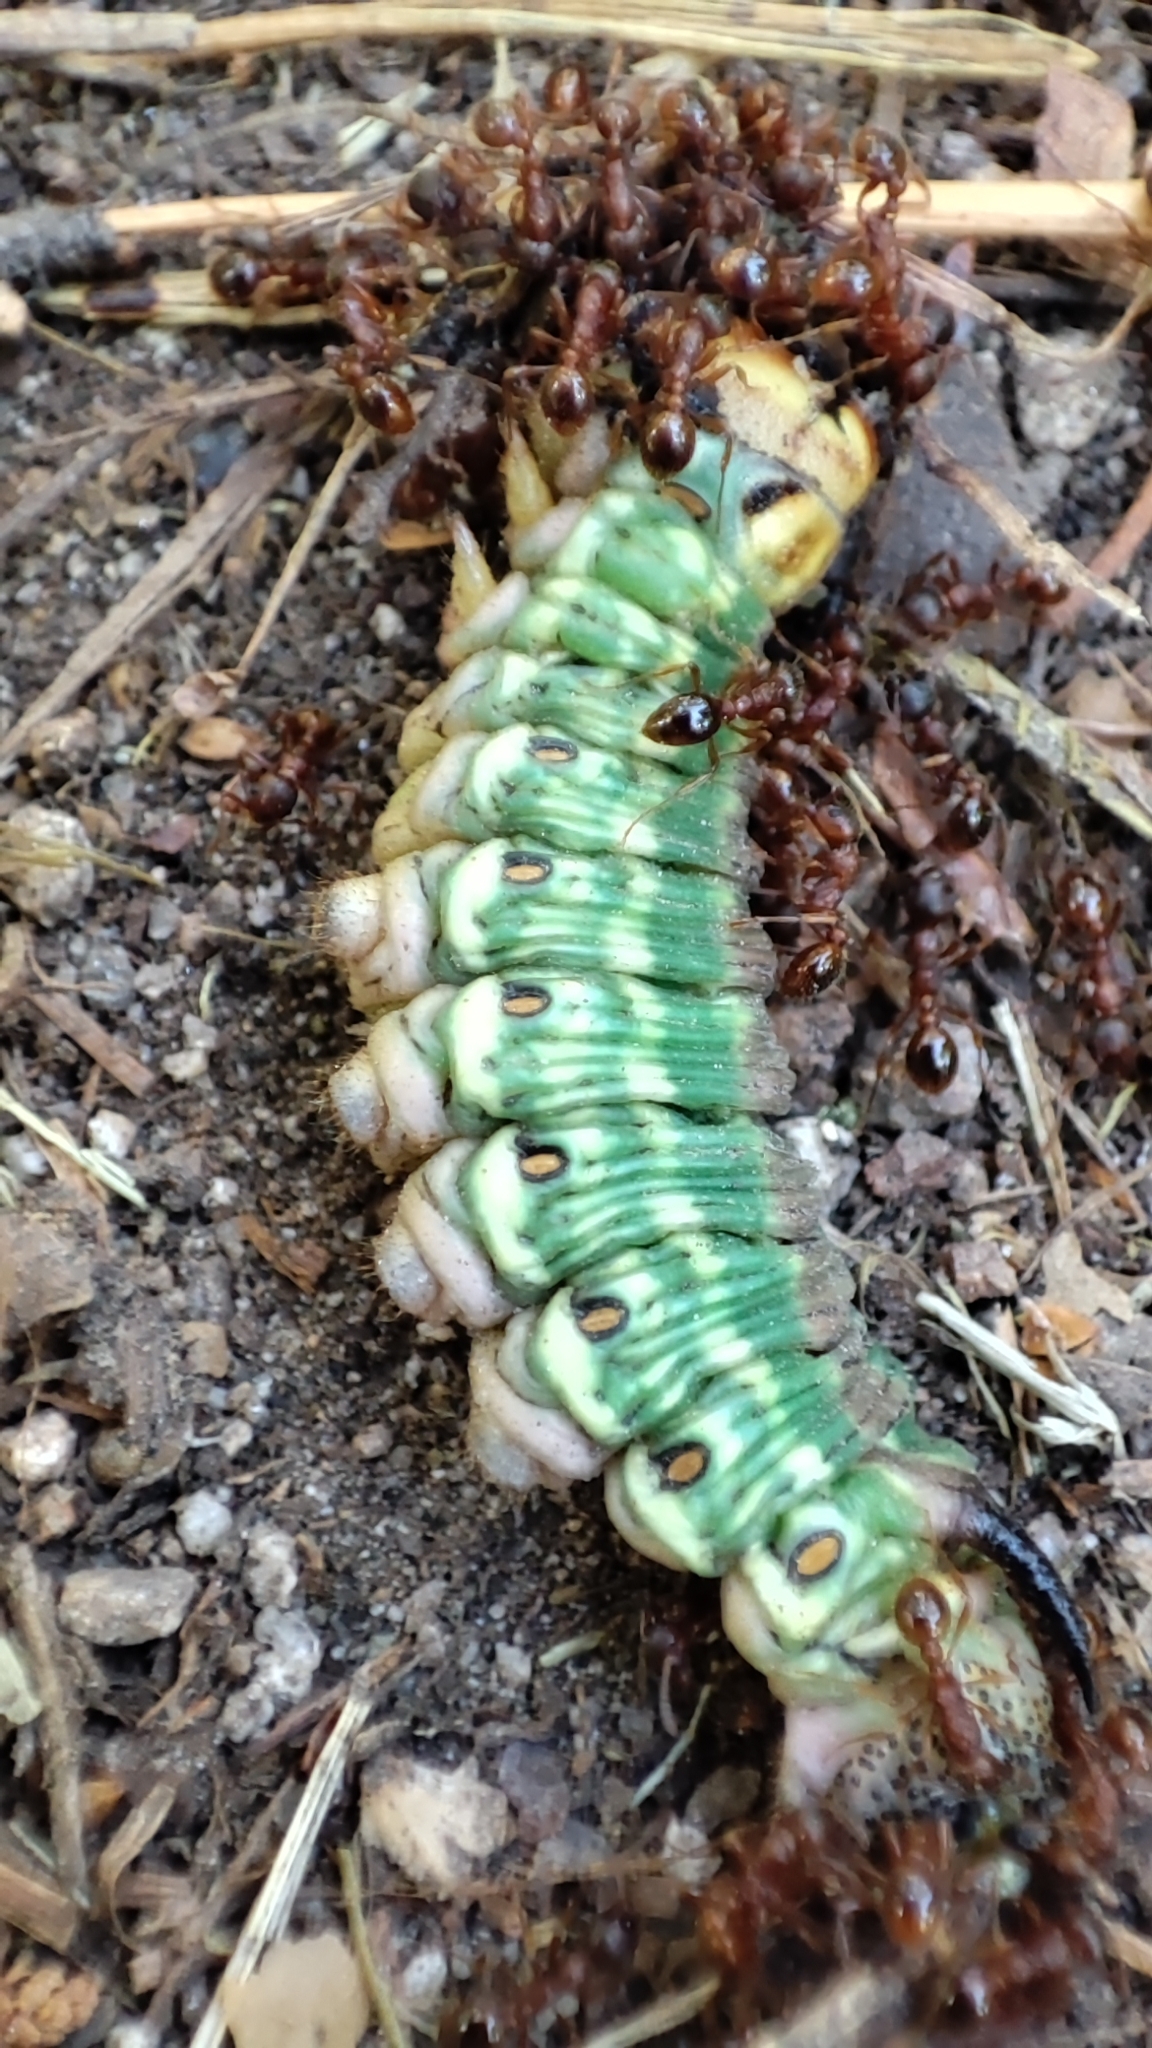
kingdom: Animalia
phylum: Arthropoda
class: Insecta
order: Lepidoptera
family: Sphingidae
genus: Sphinx
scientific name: Sphinx pinastri
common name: Pine hawk-moth
